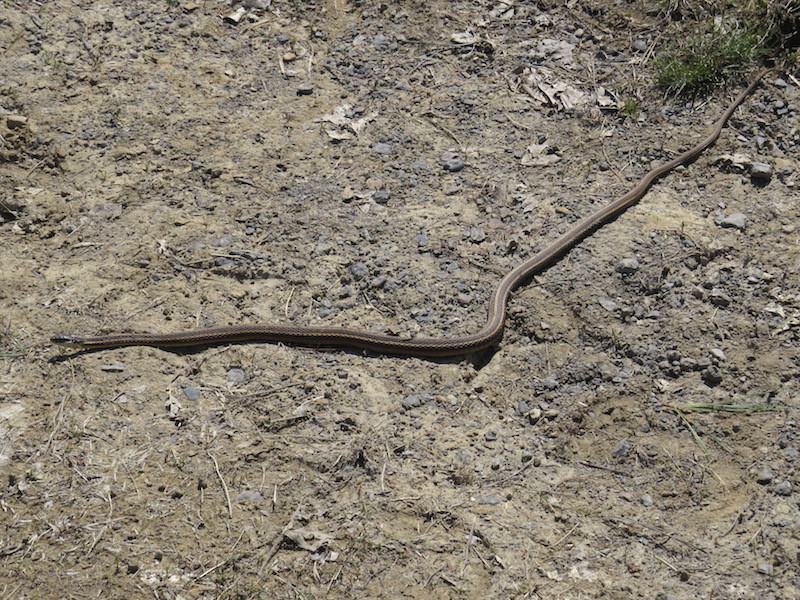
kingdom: Animalia
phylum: Chordata
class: Squamata
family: Colubridae
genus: Thamnophis
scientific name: Thamnophis saurita
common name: Eastern ribbonsnake
